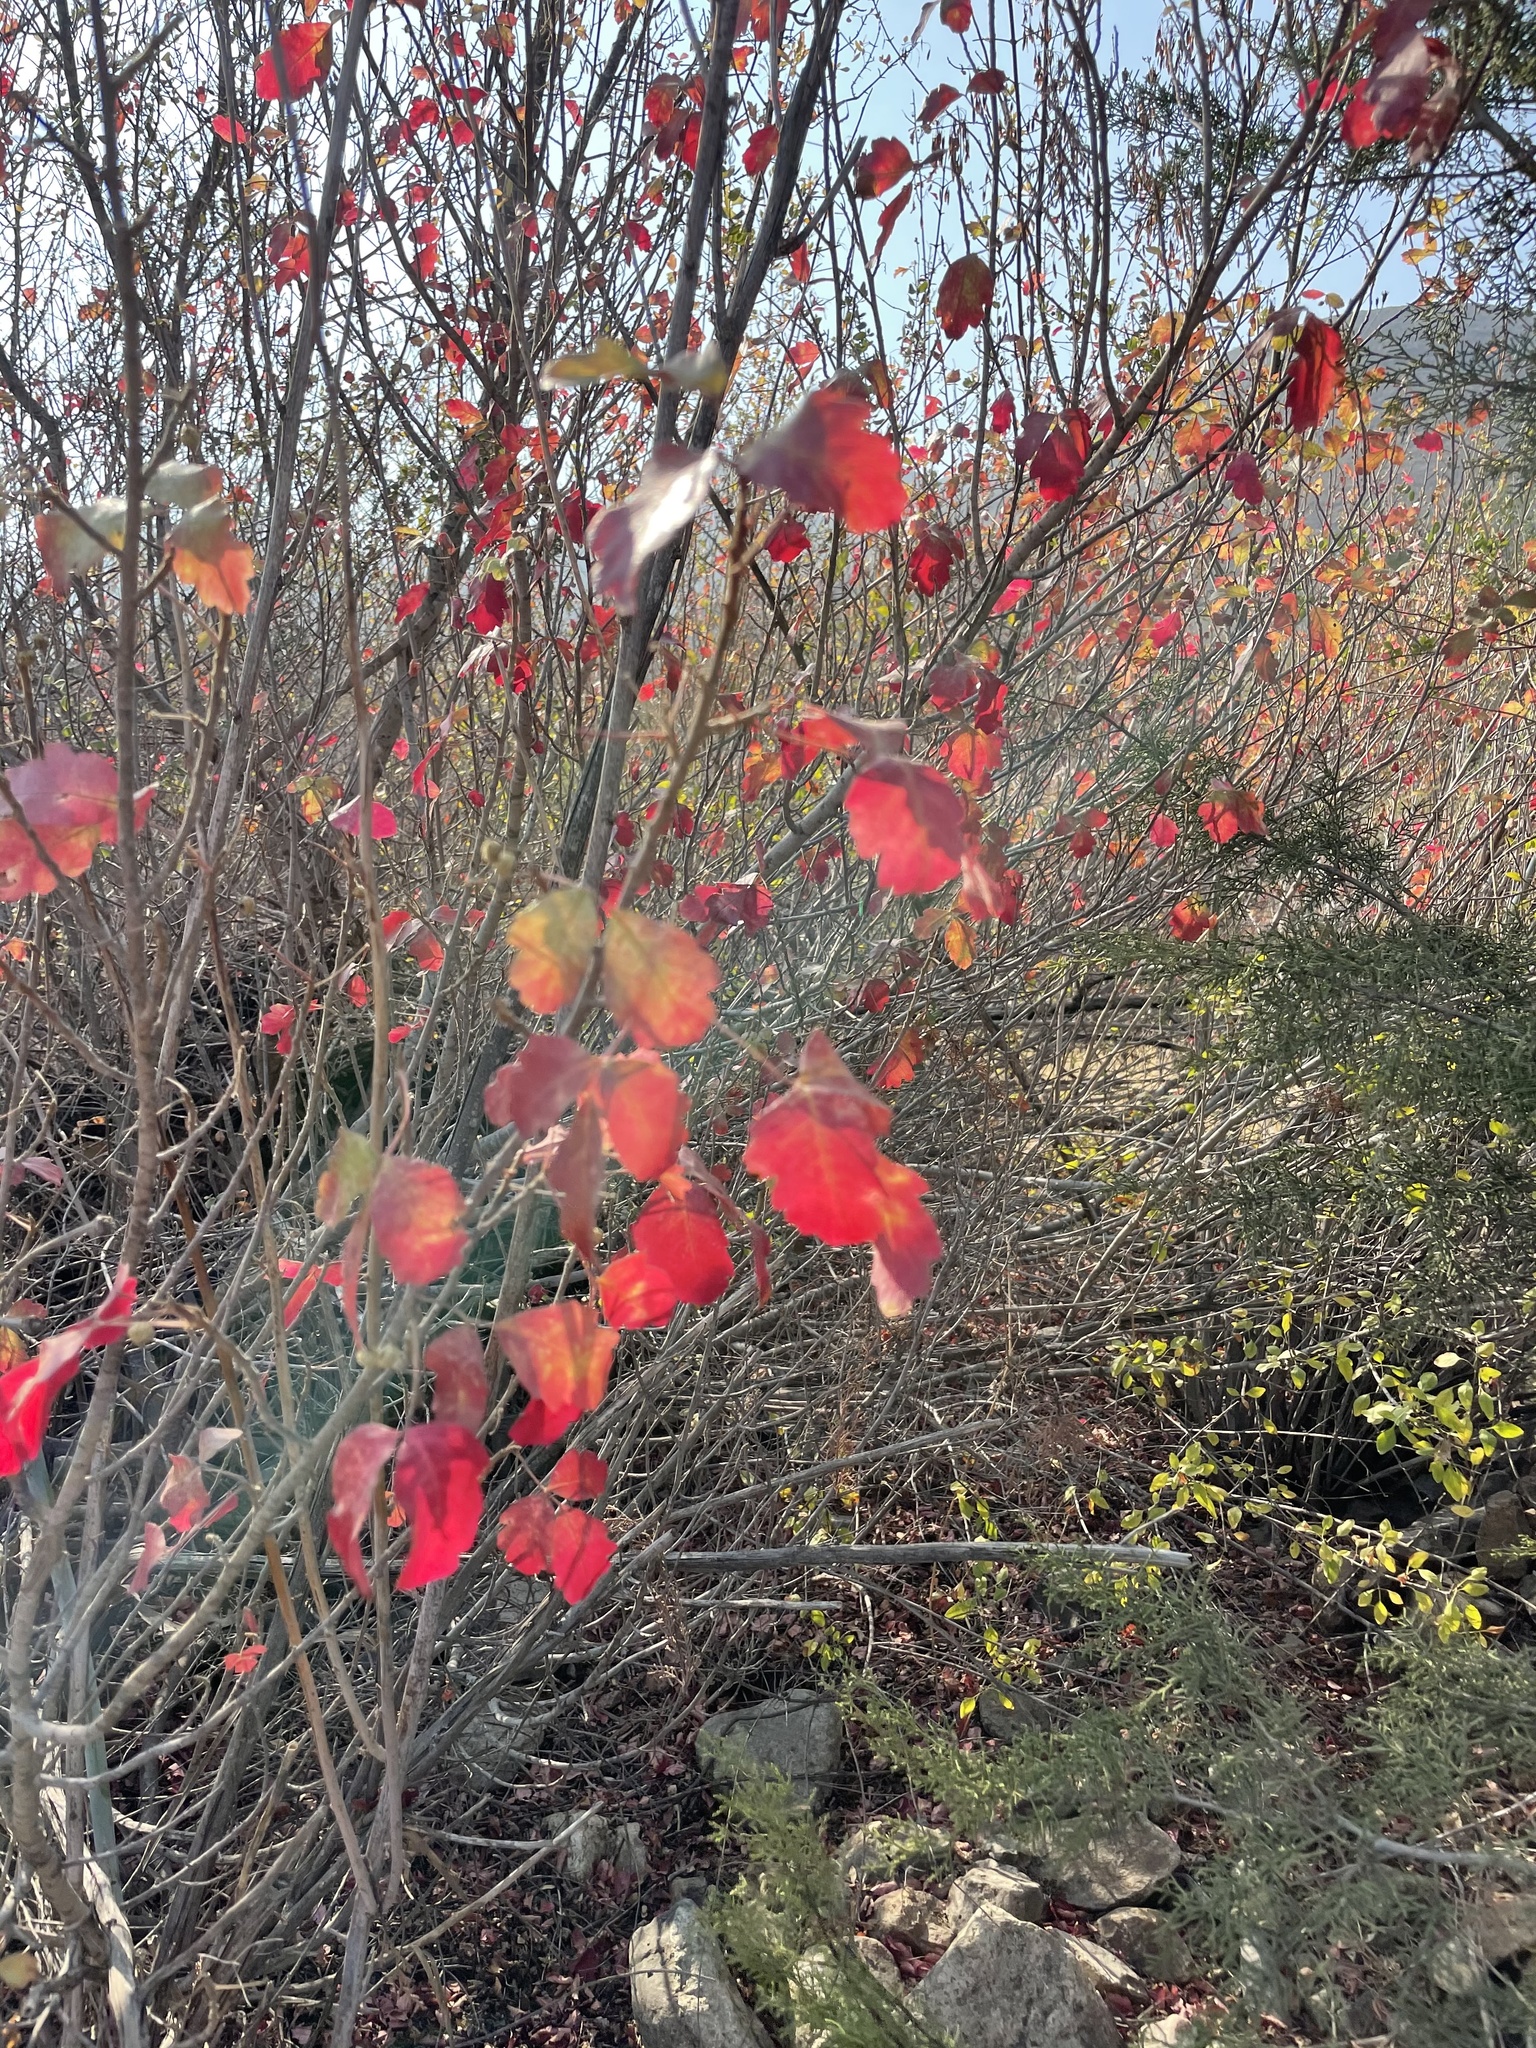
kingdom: Plantae
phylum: Tracheophyta
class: Magnoliopsida
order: Sapindales
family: Anacardiaceae
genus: Toxicodendron
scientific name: Toxicodendron diversilobum
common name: Pacific poison-oak
